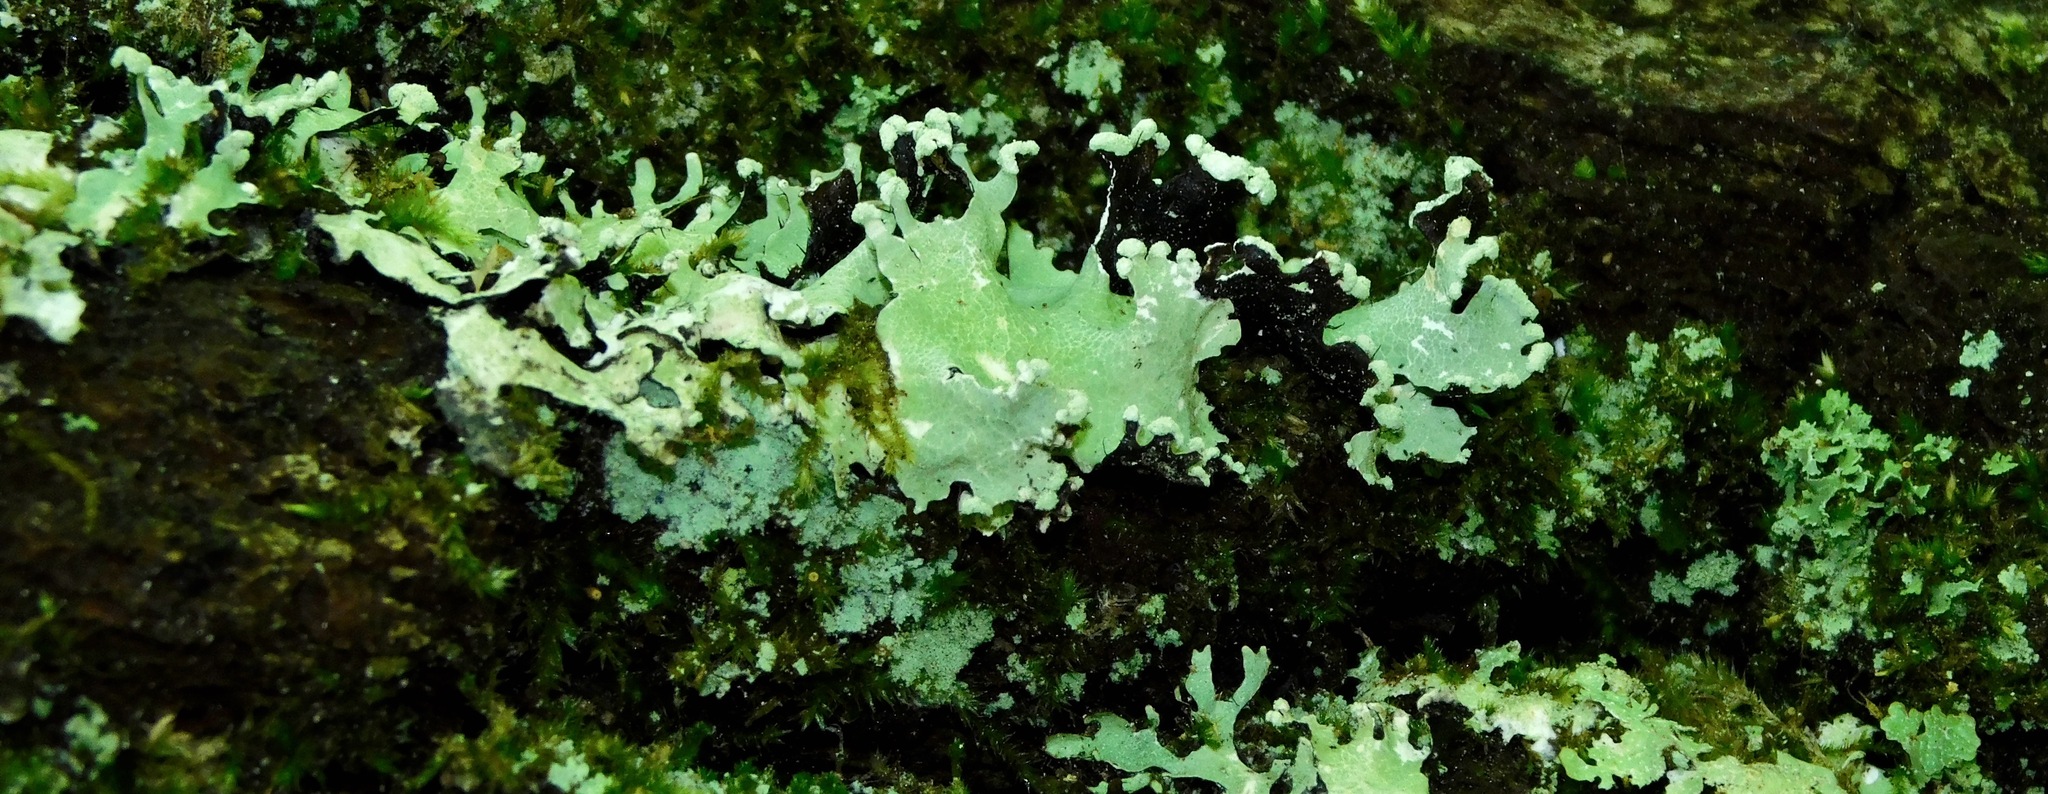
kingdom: Fungi
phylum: Ascomycota
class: Lecanoromycetes
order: Lecanorales
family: Parmeliaceae
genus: Parmotrema
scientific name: Parmotrema reticulatum
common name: Black sheet lichen
